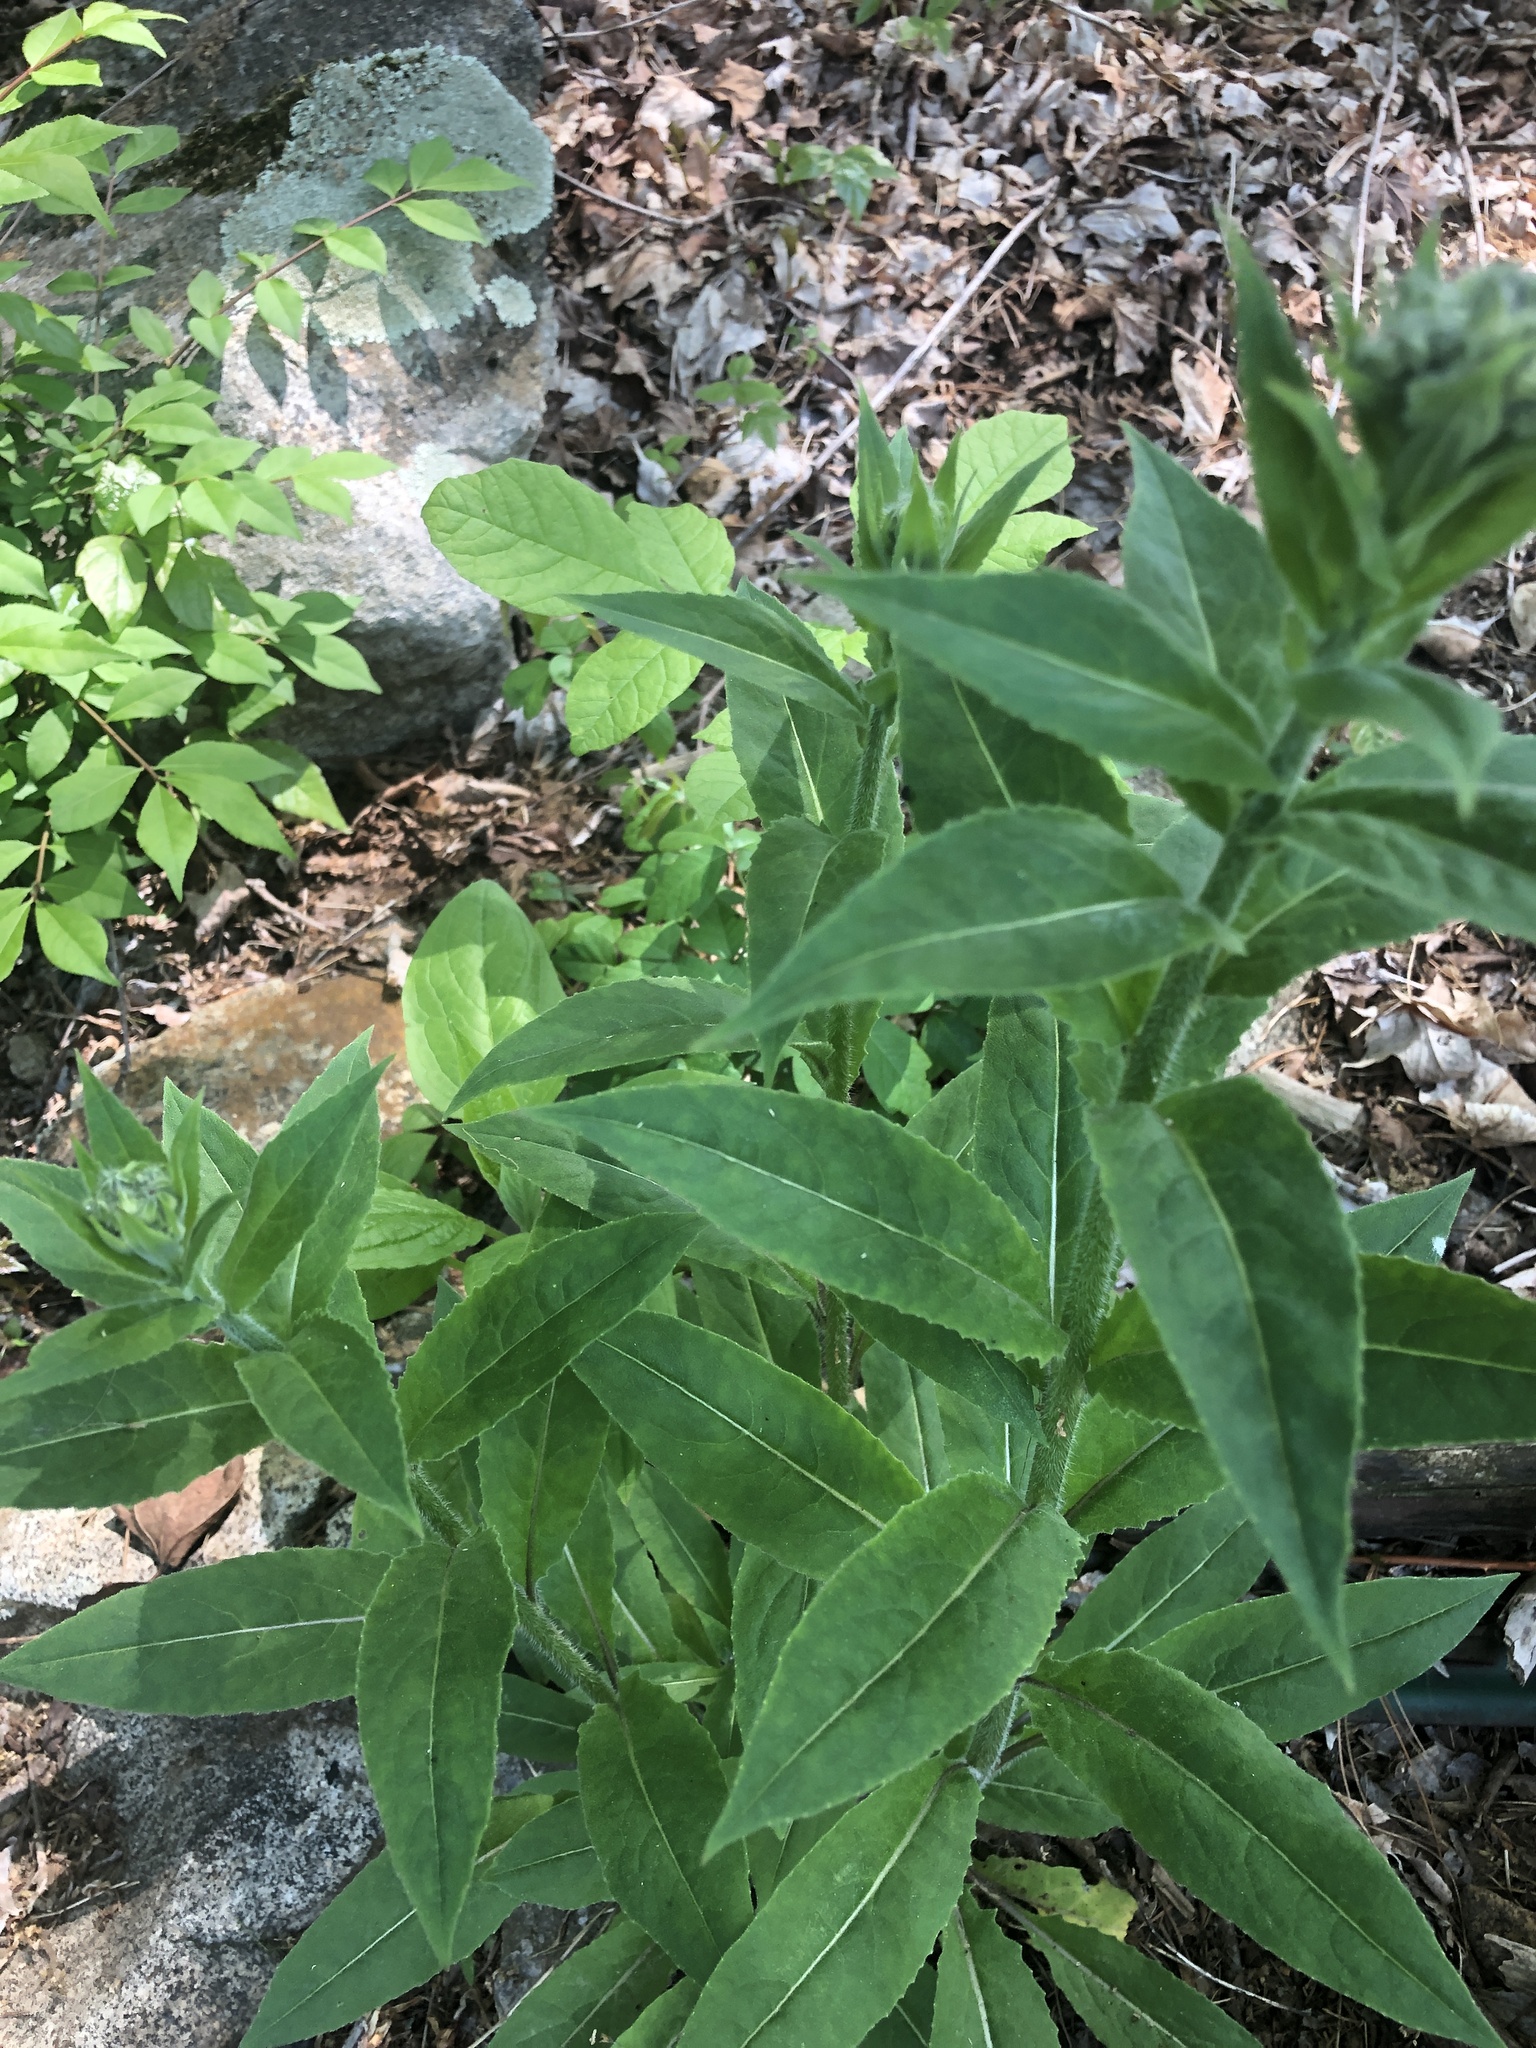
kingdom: Plantae
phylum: Tracheophyta
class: Magnoliopsida
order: Brassicales
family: Brassicaceae
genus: Hesperis
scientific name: Hesperis matronalis
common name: Dame's-violet
